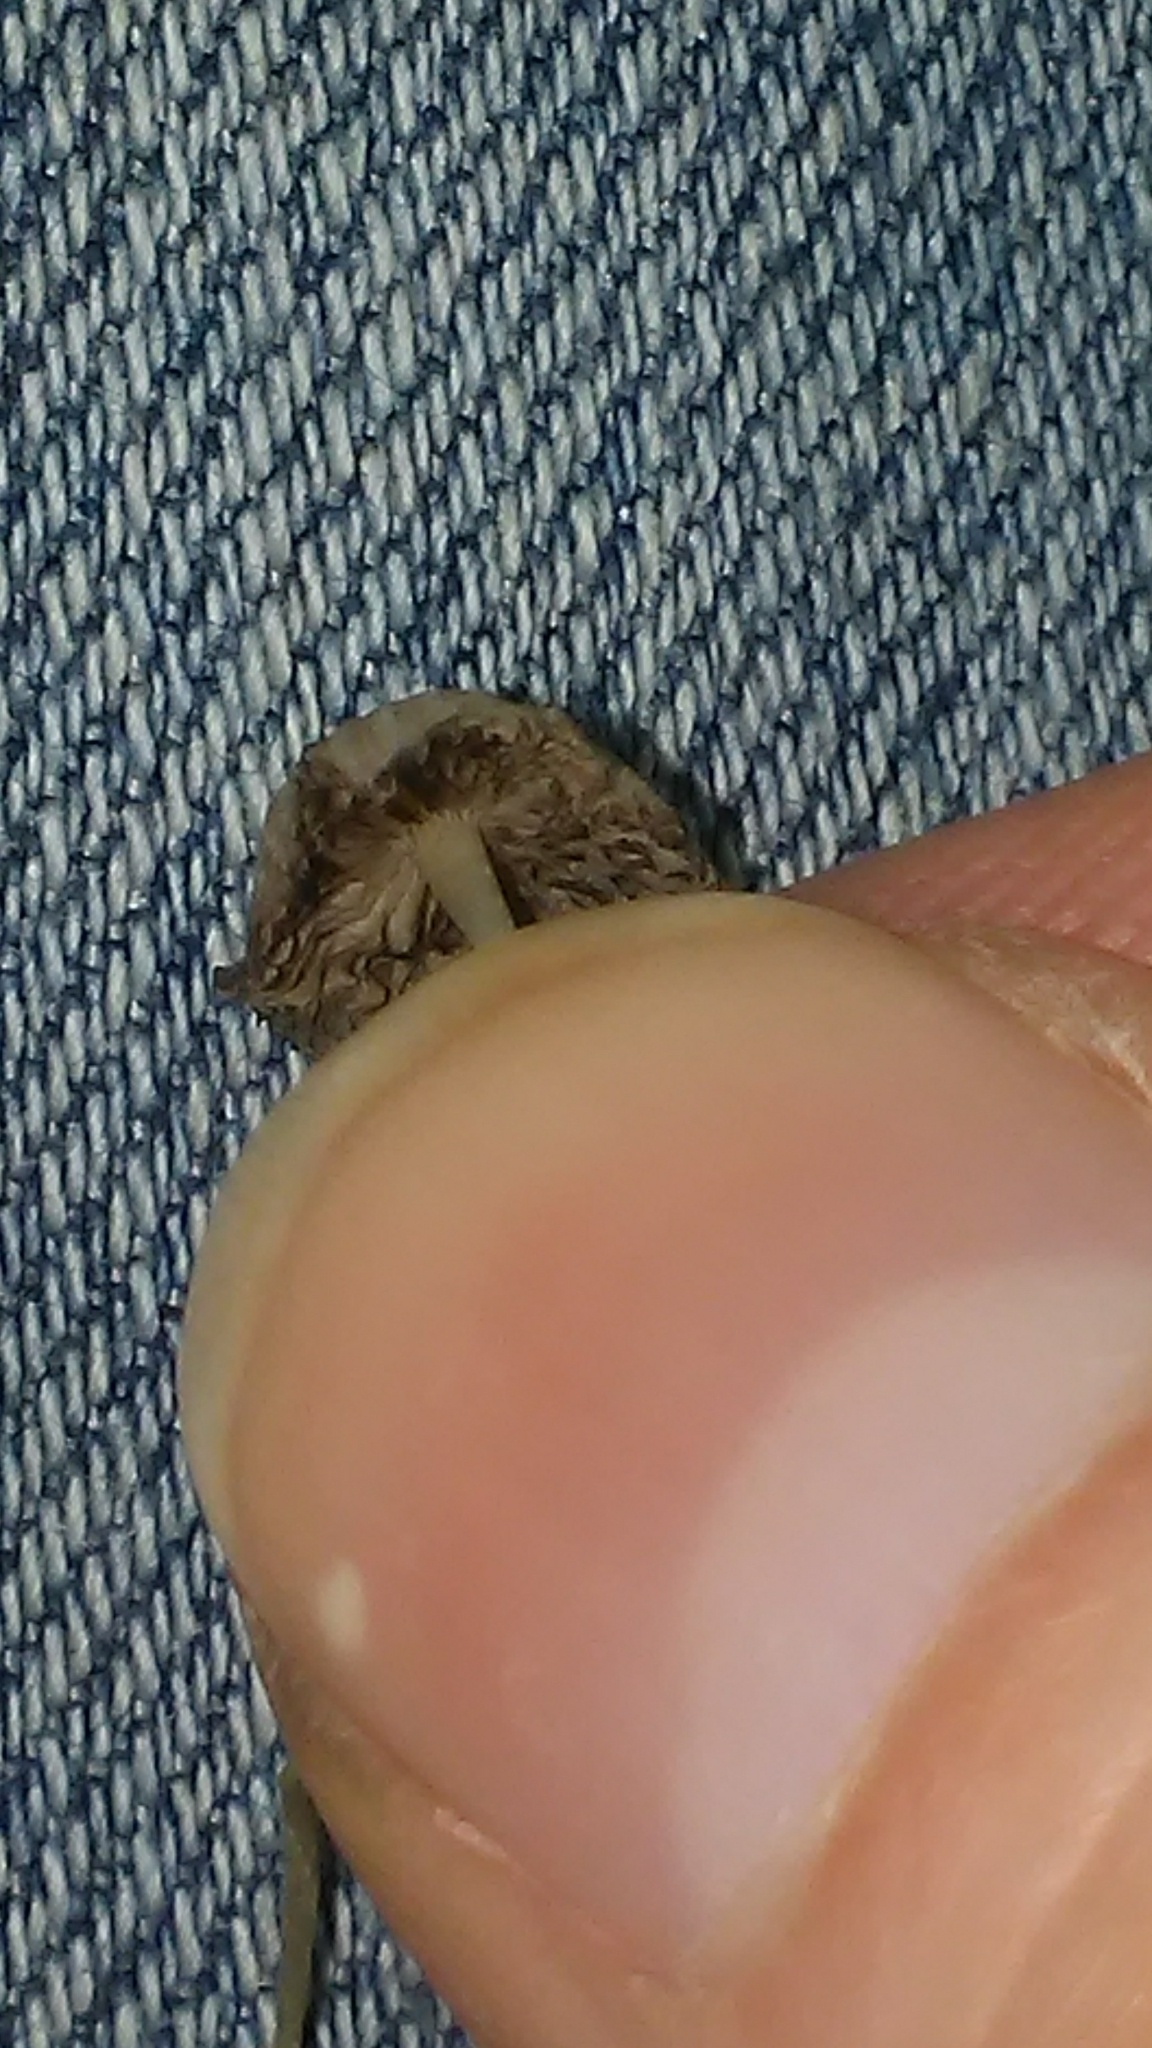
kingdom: Fungi
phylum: Basidiomycota
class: Agaricomycetes
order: Agaricales
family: Psathyrellaceae
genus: Coprinellus
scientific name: Coprinellus disseminatus
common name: Fairies' bonnets
